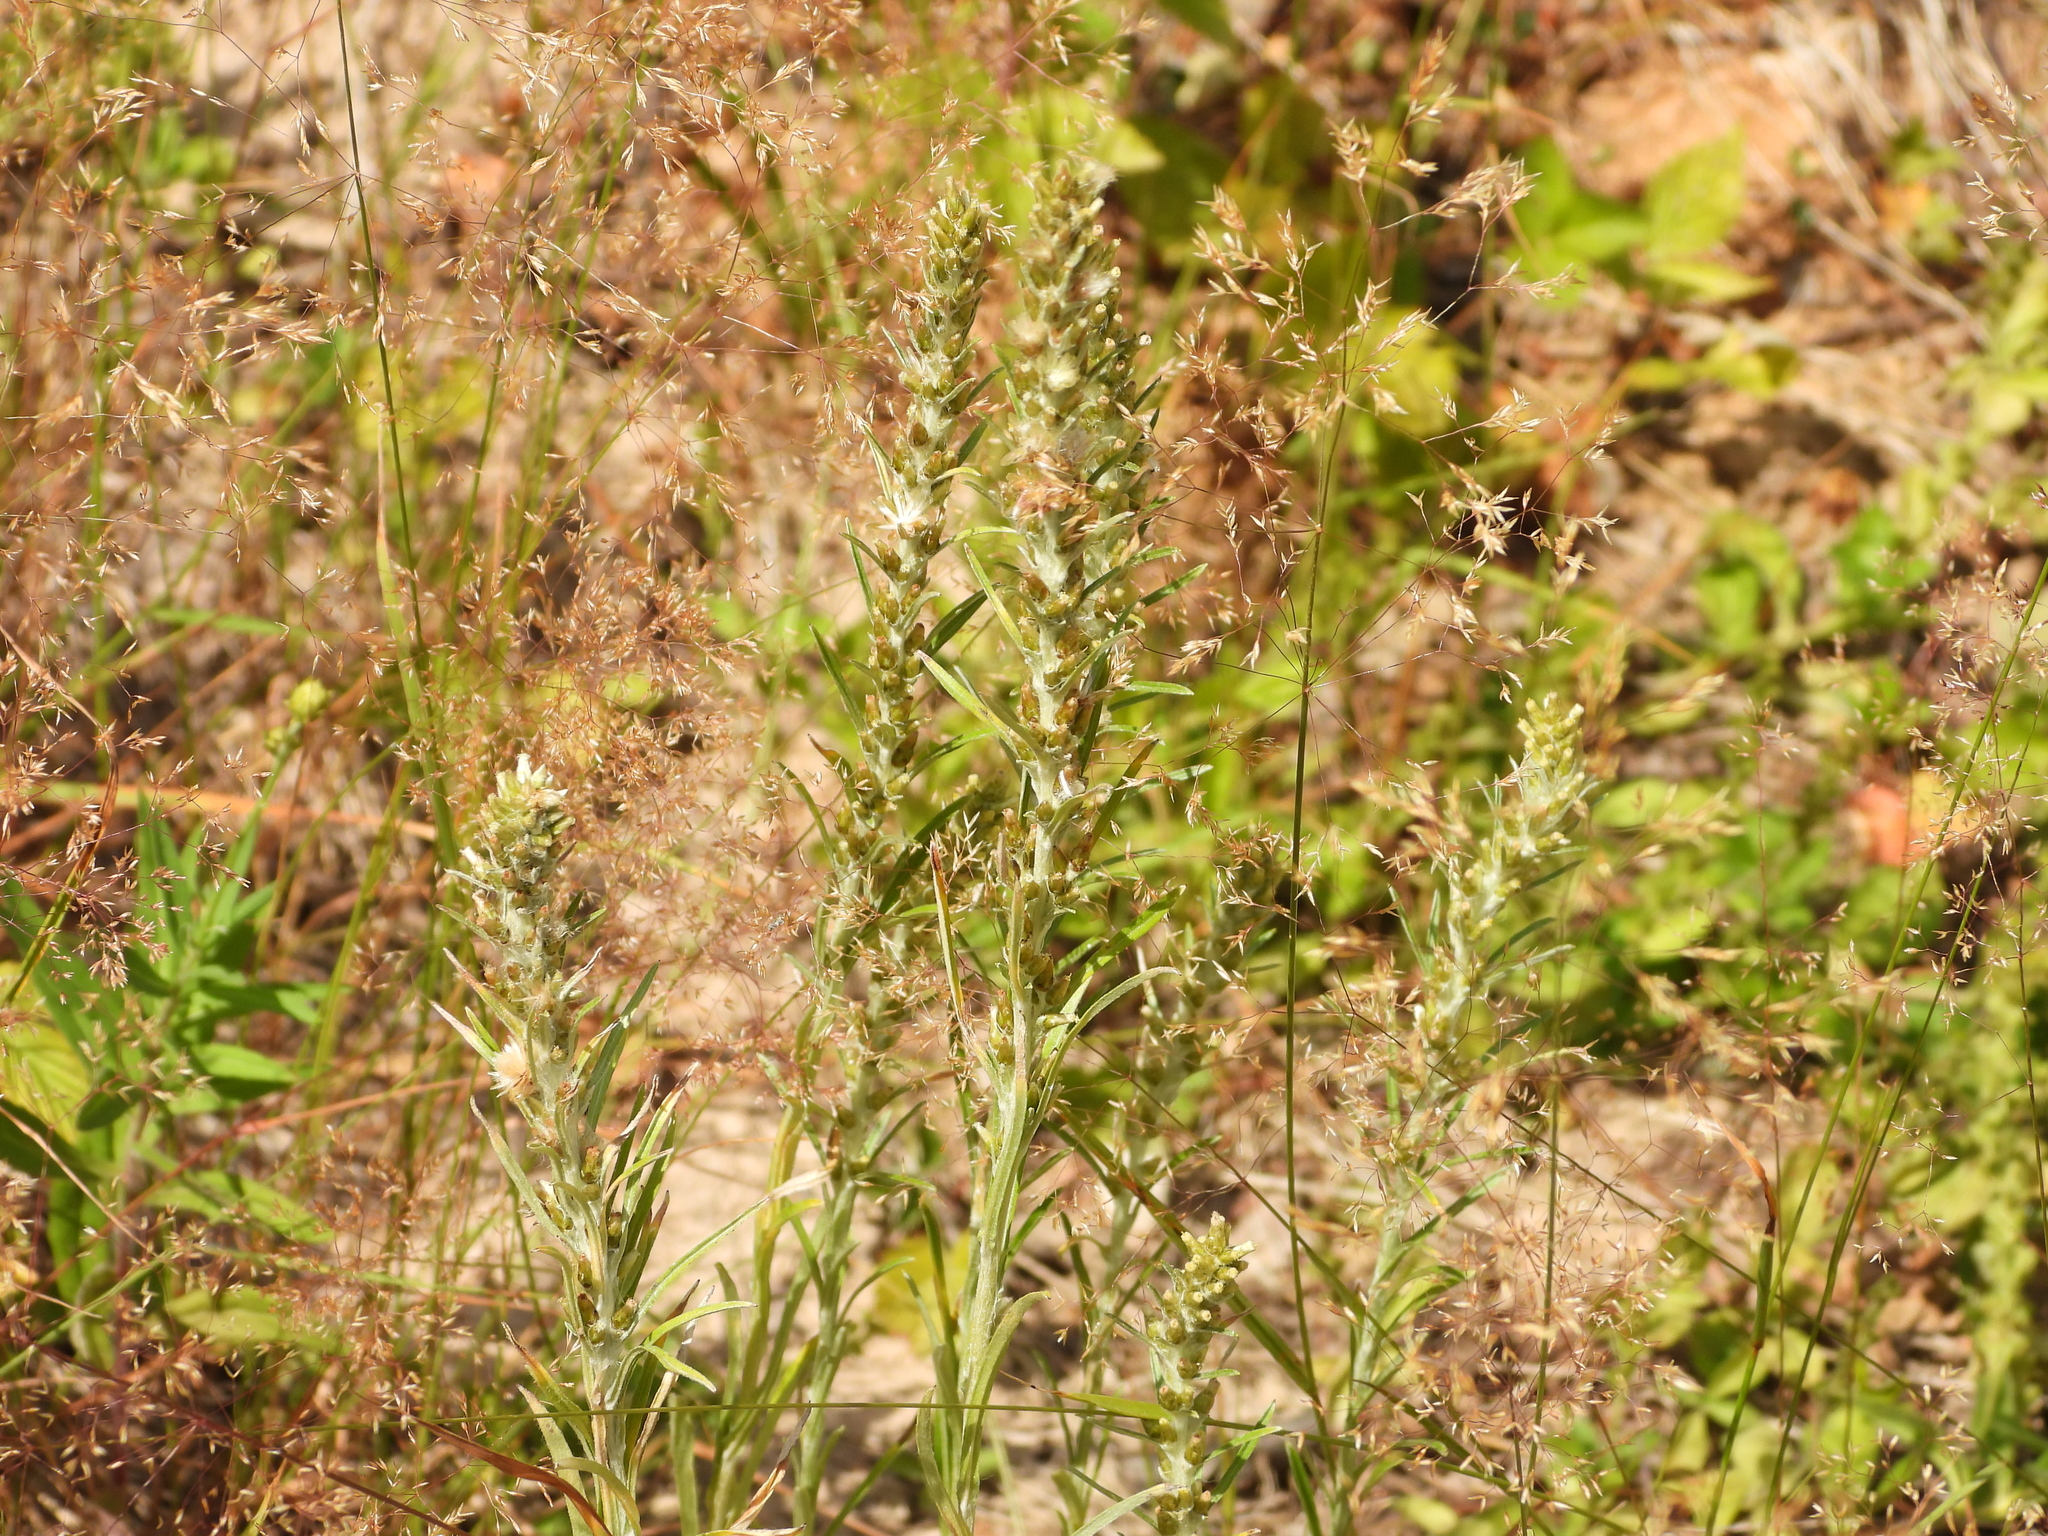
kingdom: Plantae
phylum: Tracheophyta
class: Magnoliopsida
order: Asterales
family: Asteraceae
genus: Omalotheca
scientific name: Omalotheca sylvatica
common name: Heath cudweed
